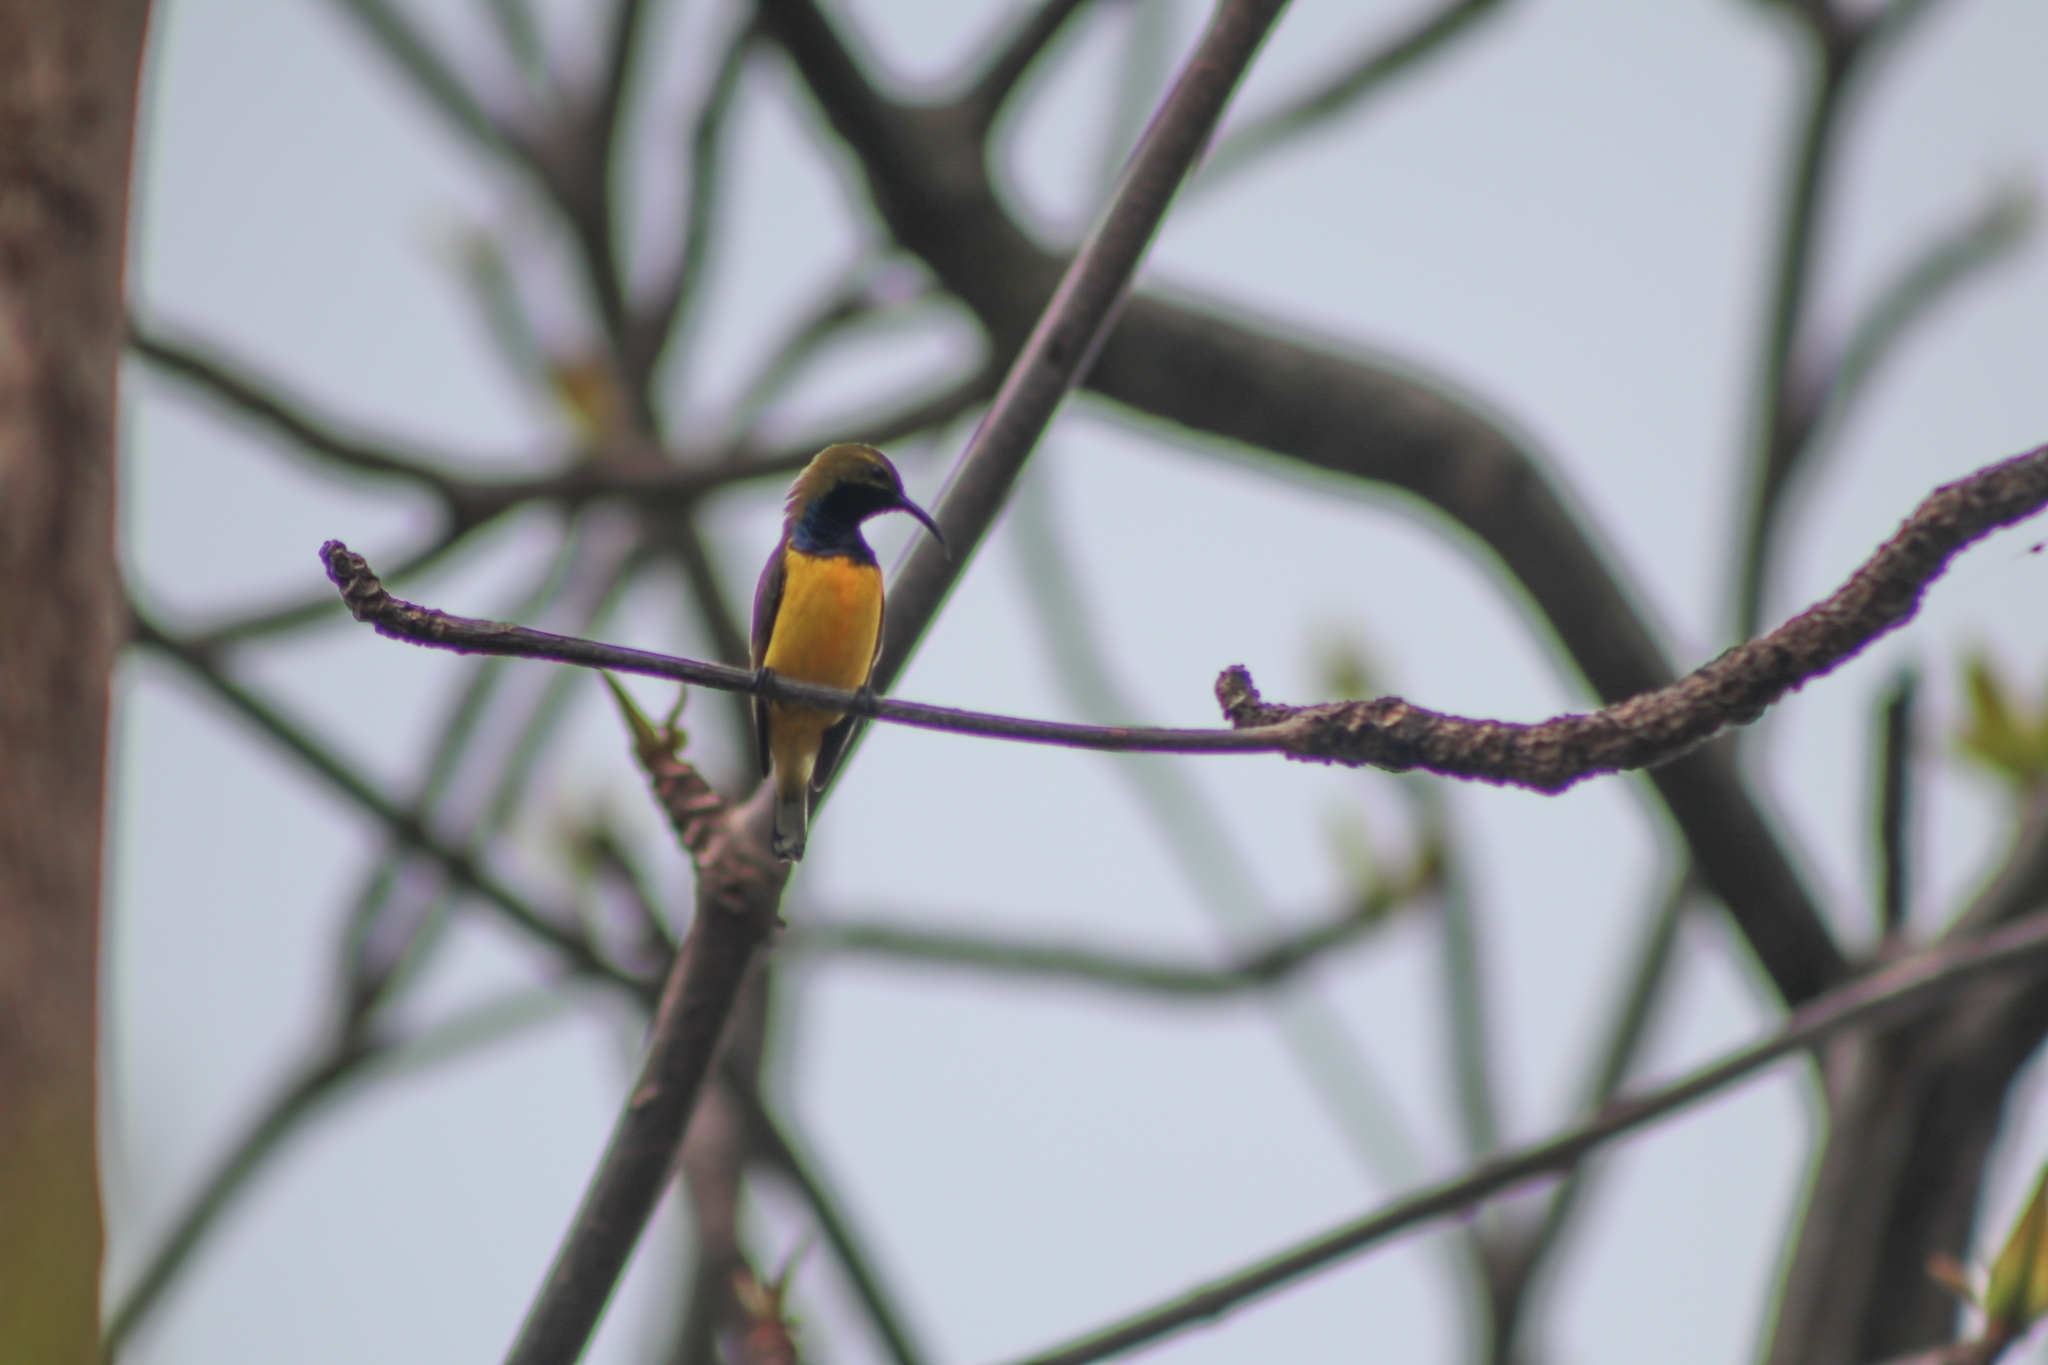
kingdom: Animalia
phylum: Chordata
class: Aves
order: Passeriformes
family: Nectariniidae
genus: Cinnyris
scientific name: Cinnyris
